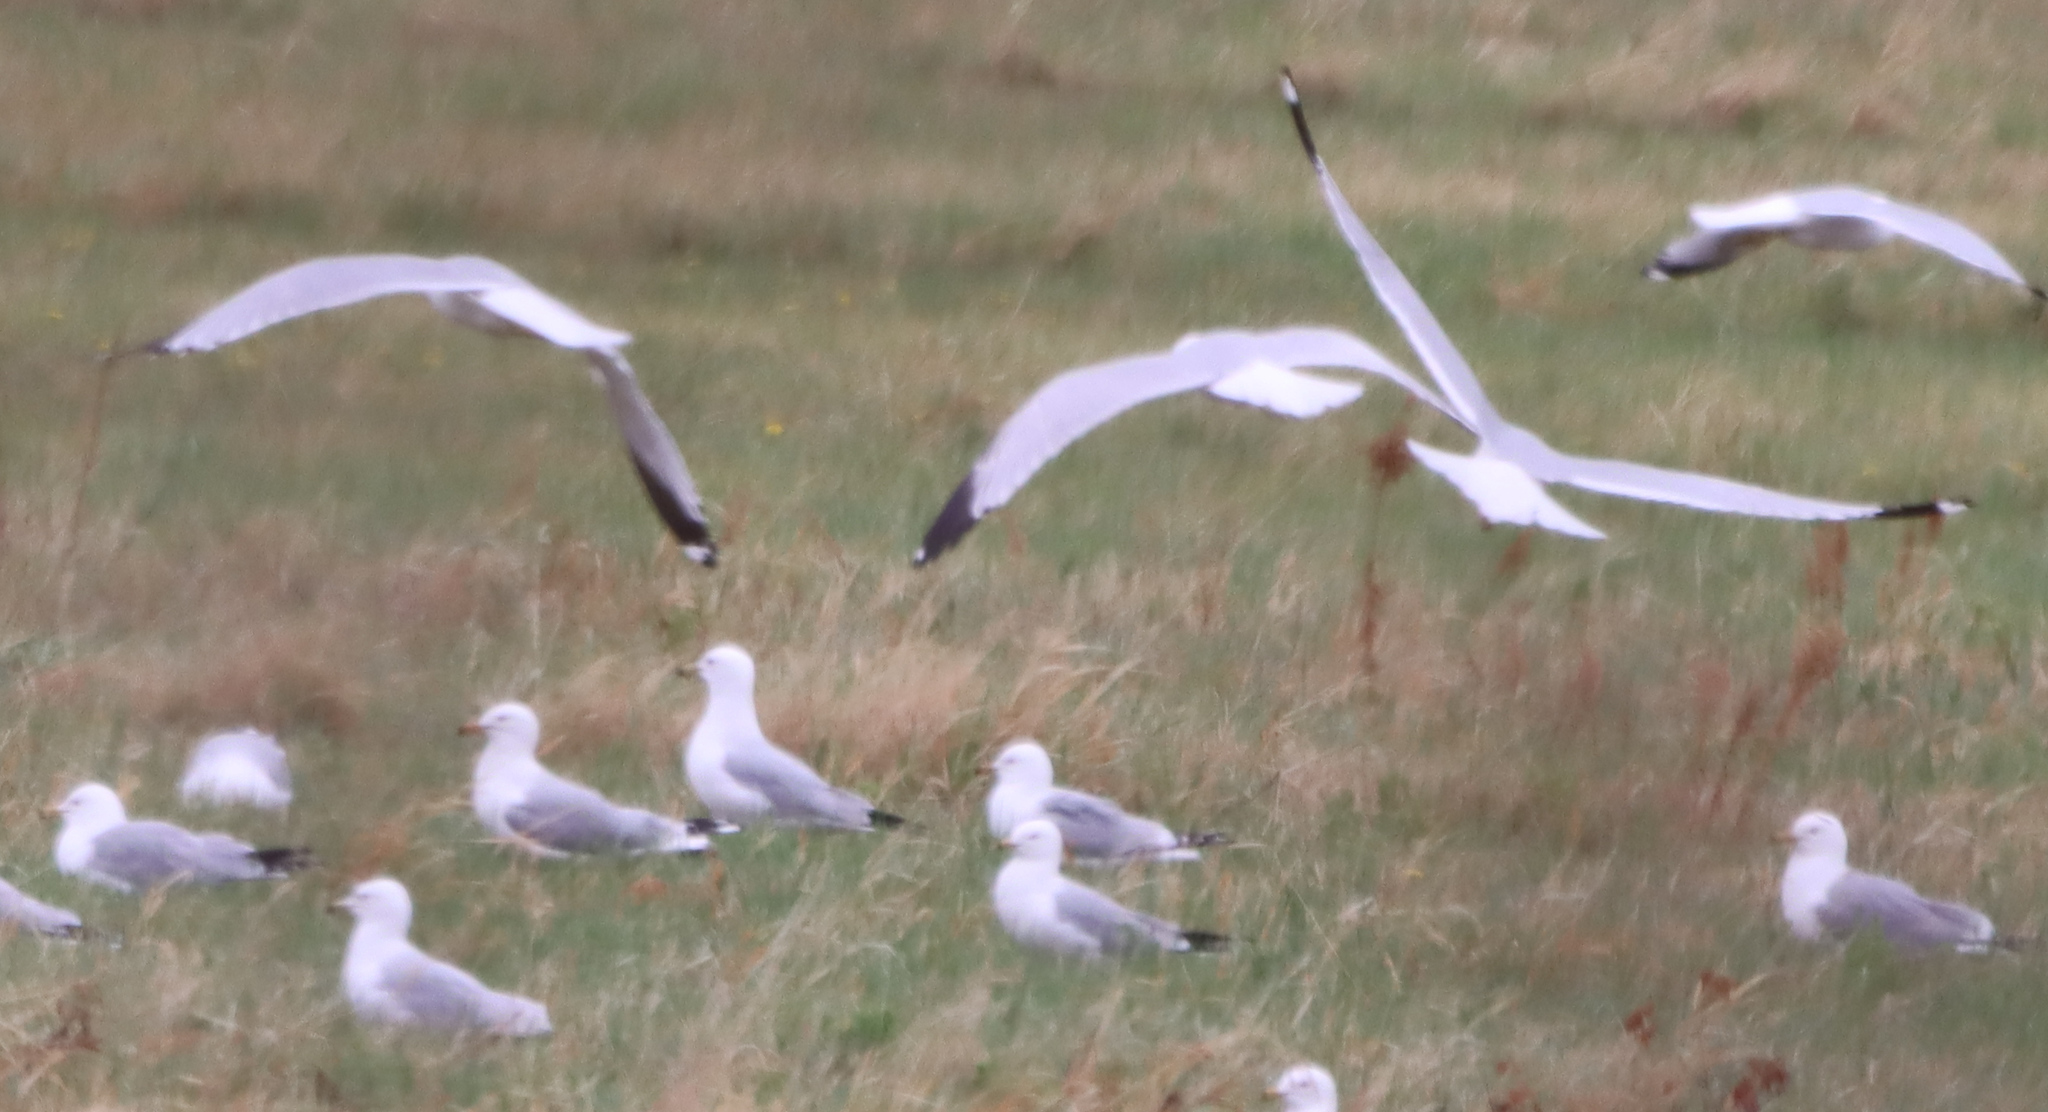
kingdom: Animalia
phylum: Chordata
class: Aves
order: Charadriiformes
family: Laridae
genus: Larus
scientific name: Larus delawarensis
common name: Ring-billed gull
